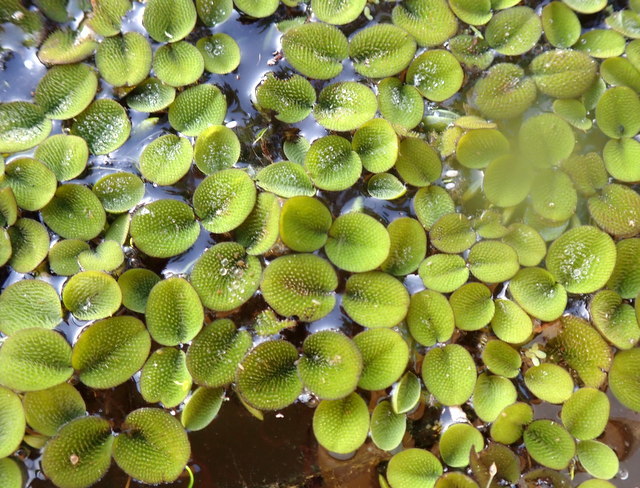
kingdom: Plantae
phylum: Tracheophyta
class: Polypodiopsida
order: Salviniales
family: Salviniaceae
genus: Salvinia
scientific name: Salvinia minima
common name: Water spangles
